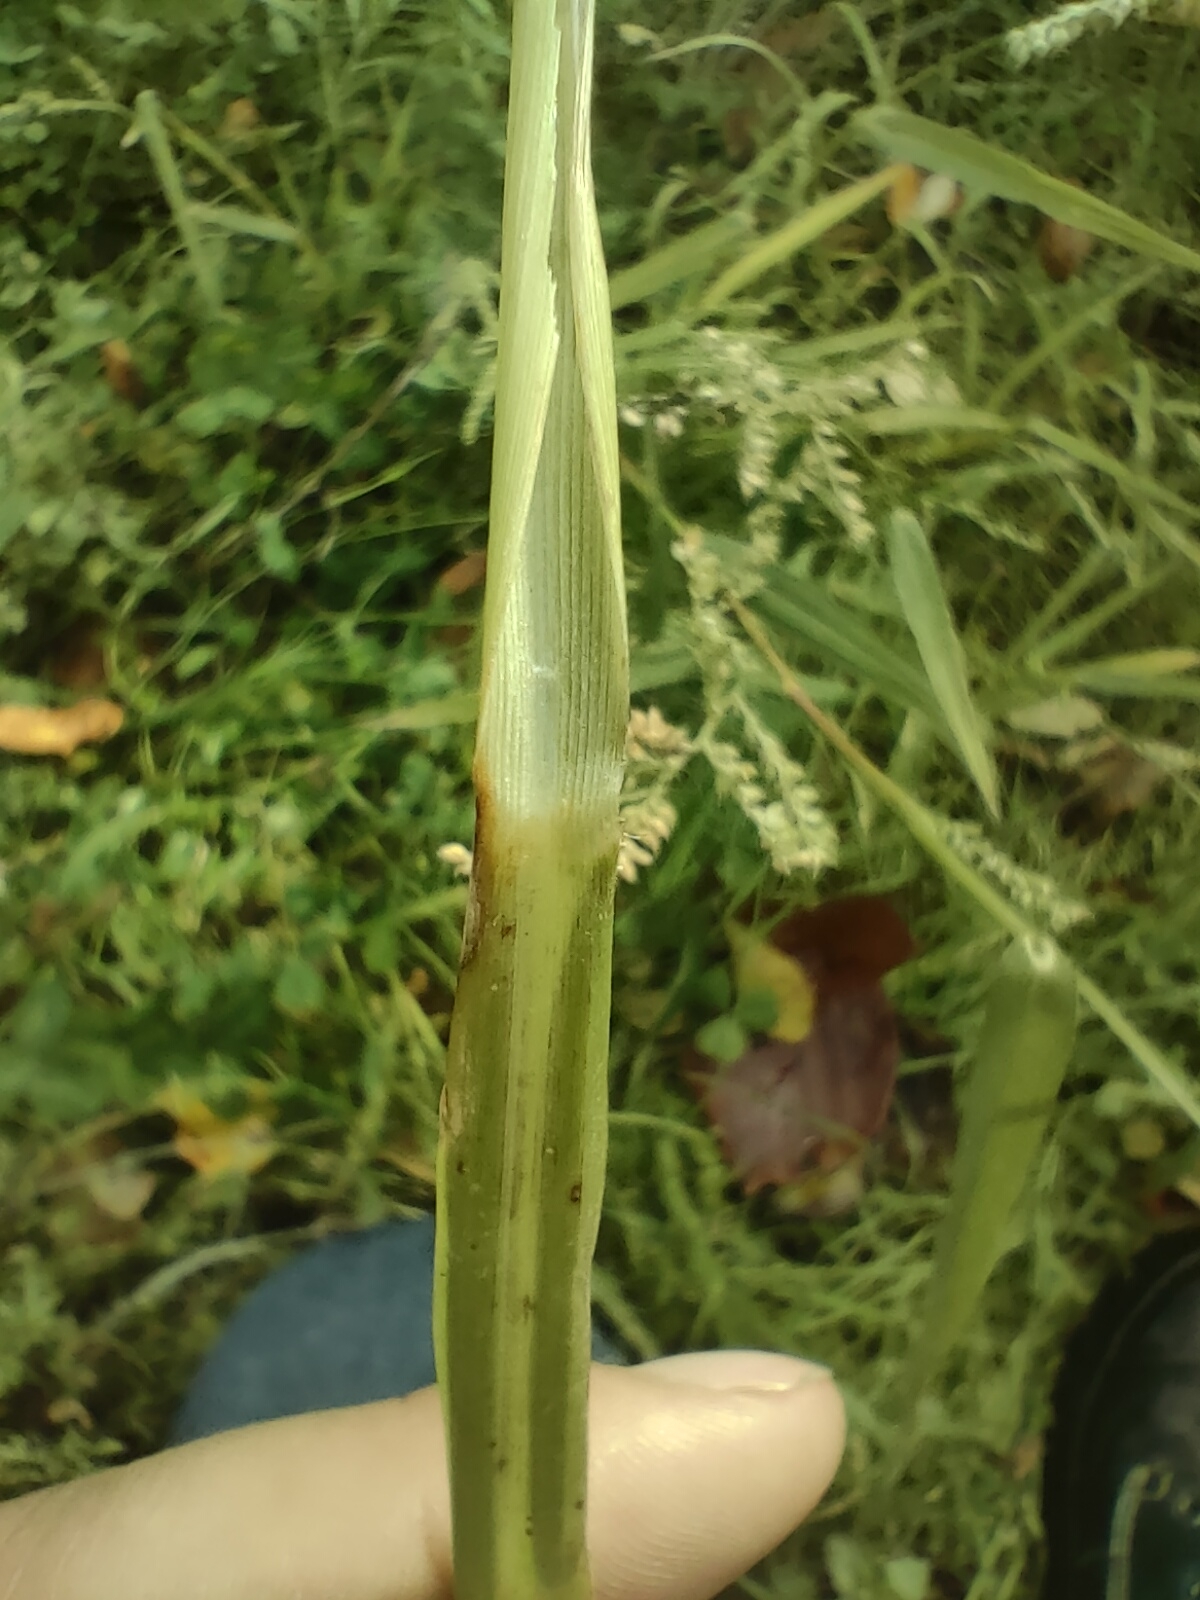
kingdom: Plantae
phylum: Tracheophyta
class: Liliopsida
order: Poales
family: Poaceae
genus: Echinochloa
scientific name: Echinochloa crus-galli
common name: Cockspur
